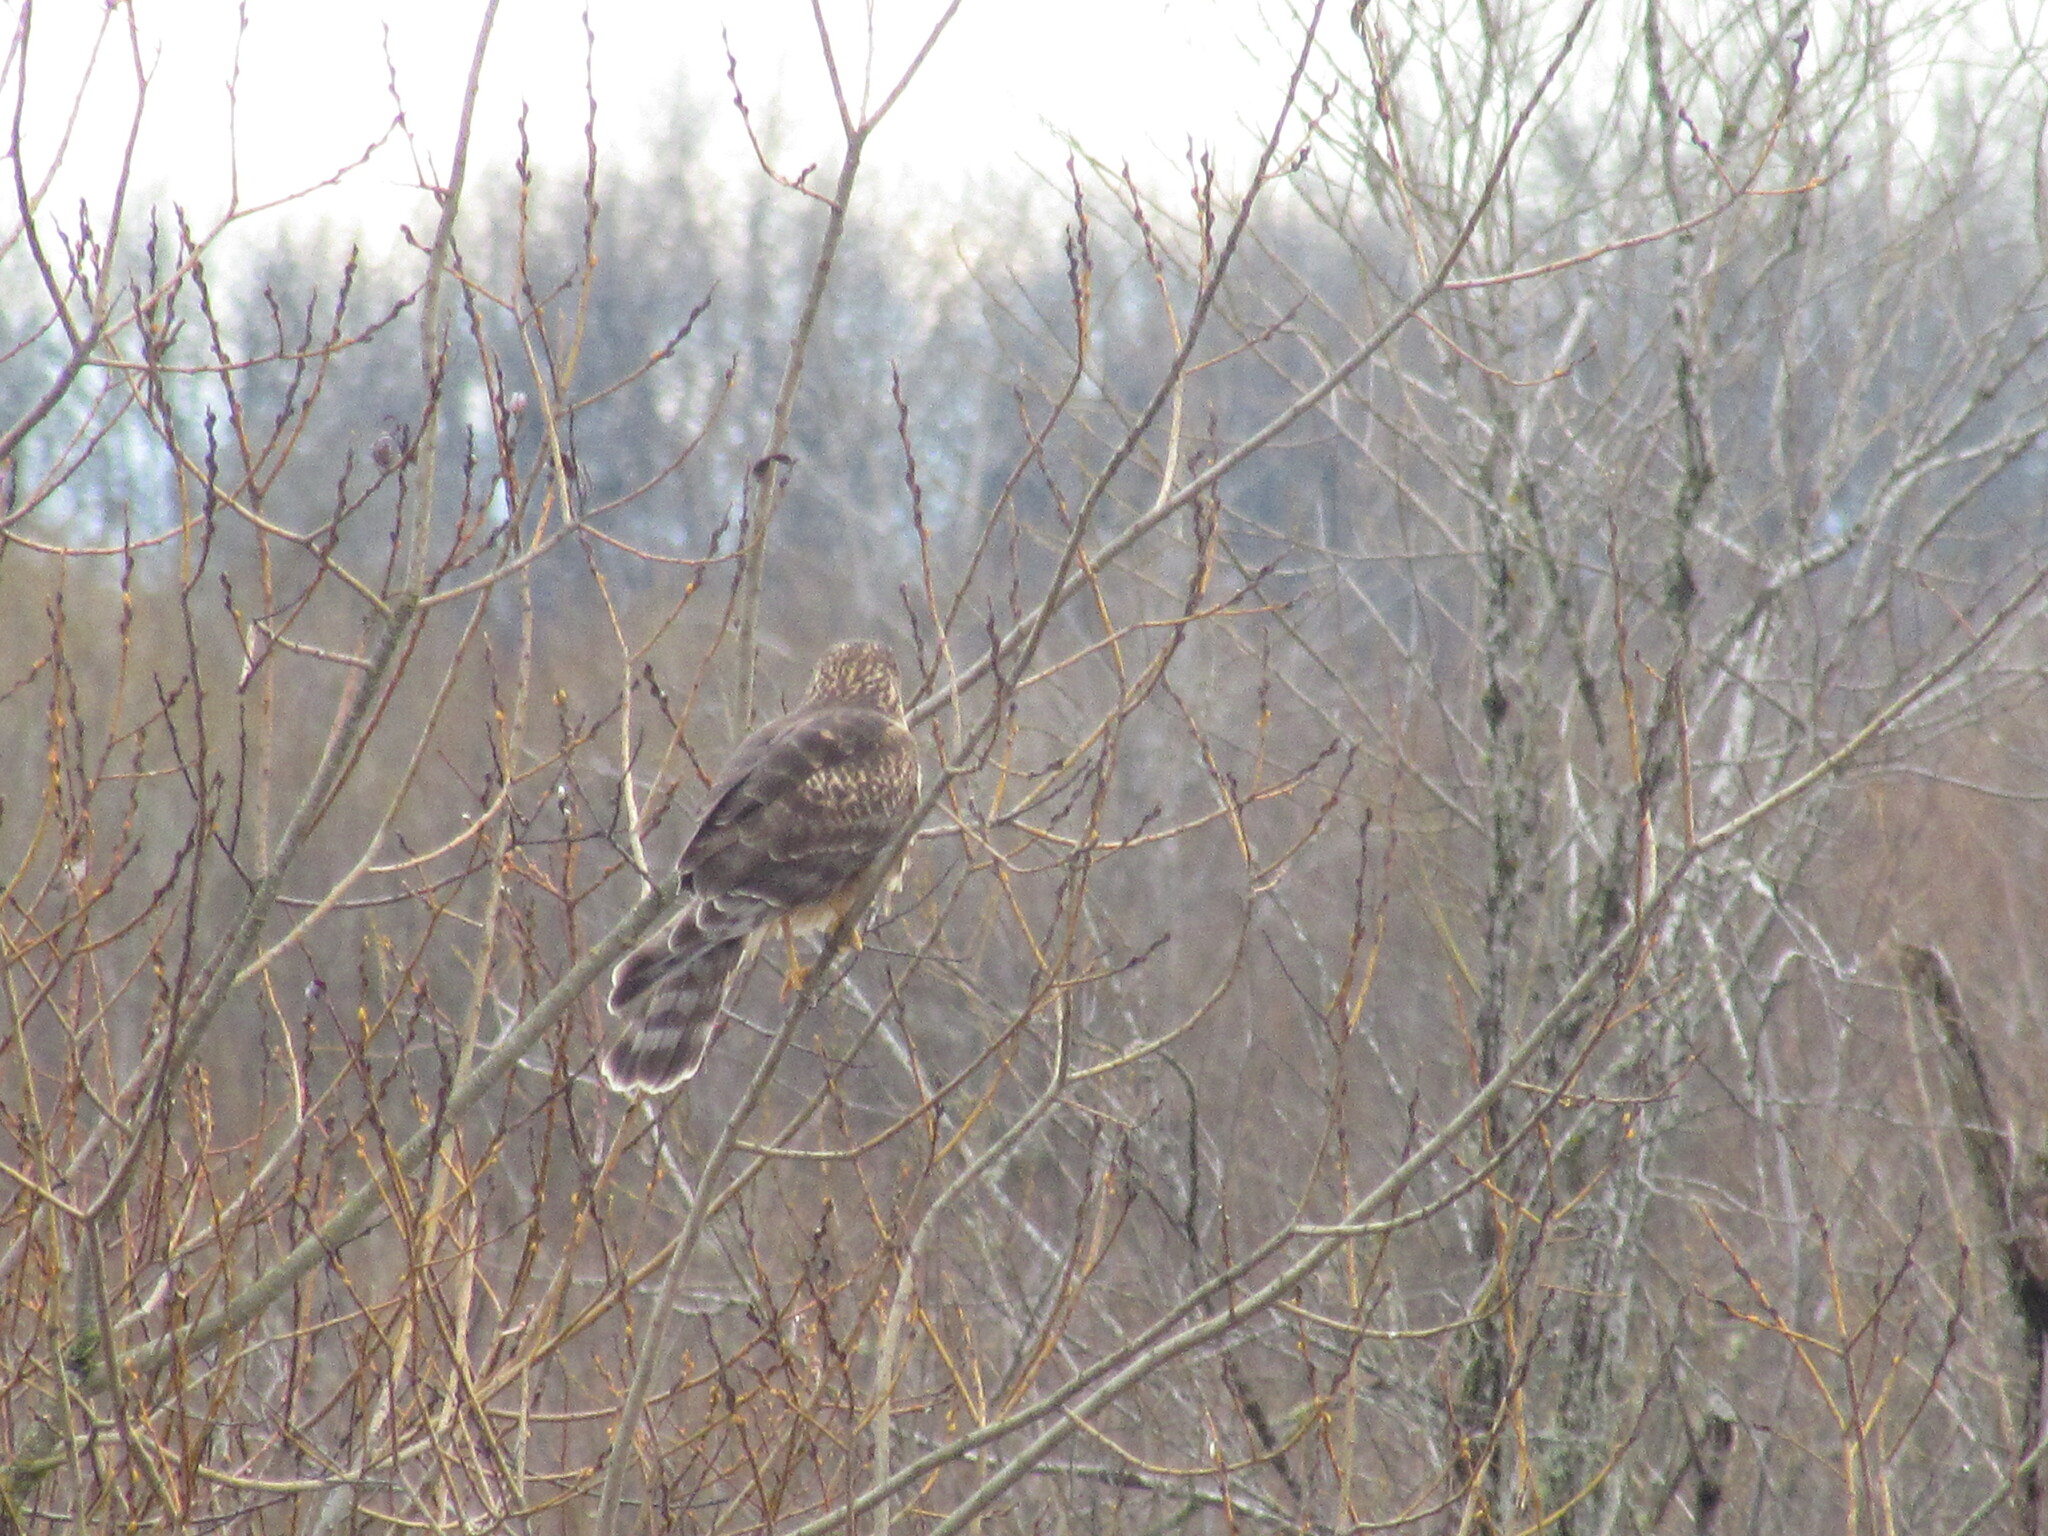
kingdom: Animalia
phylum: Chordata
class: Aves
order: Accipitriformes
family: Accipitridae
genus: Circus
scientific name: Circus cyaneus
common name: Hen harrier
